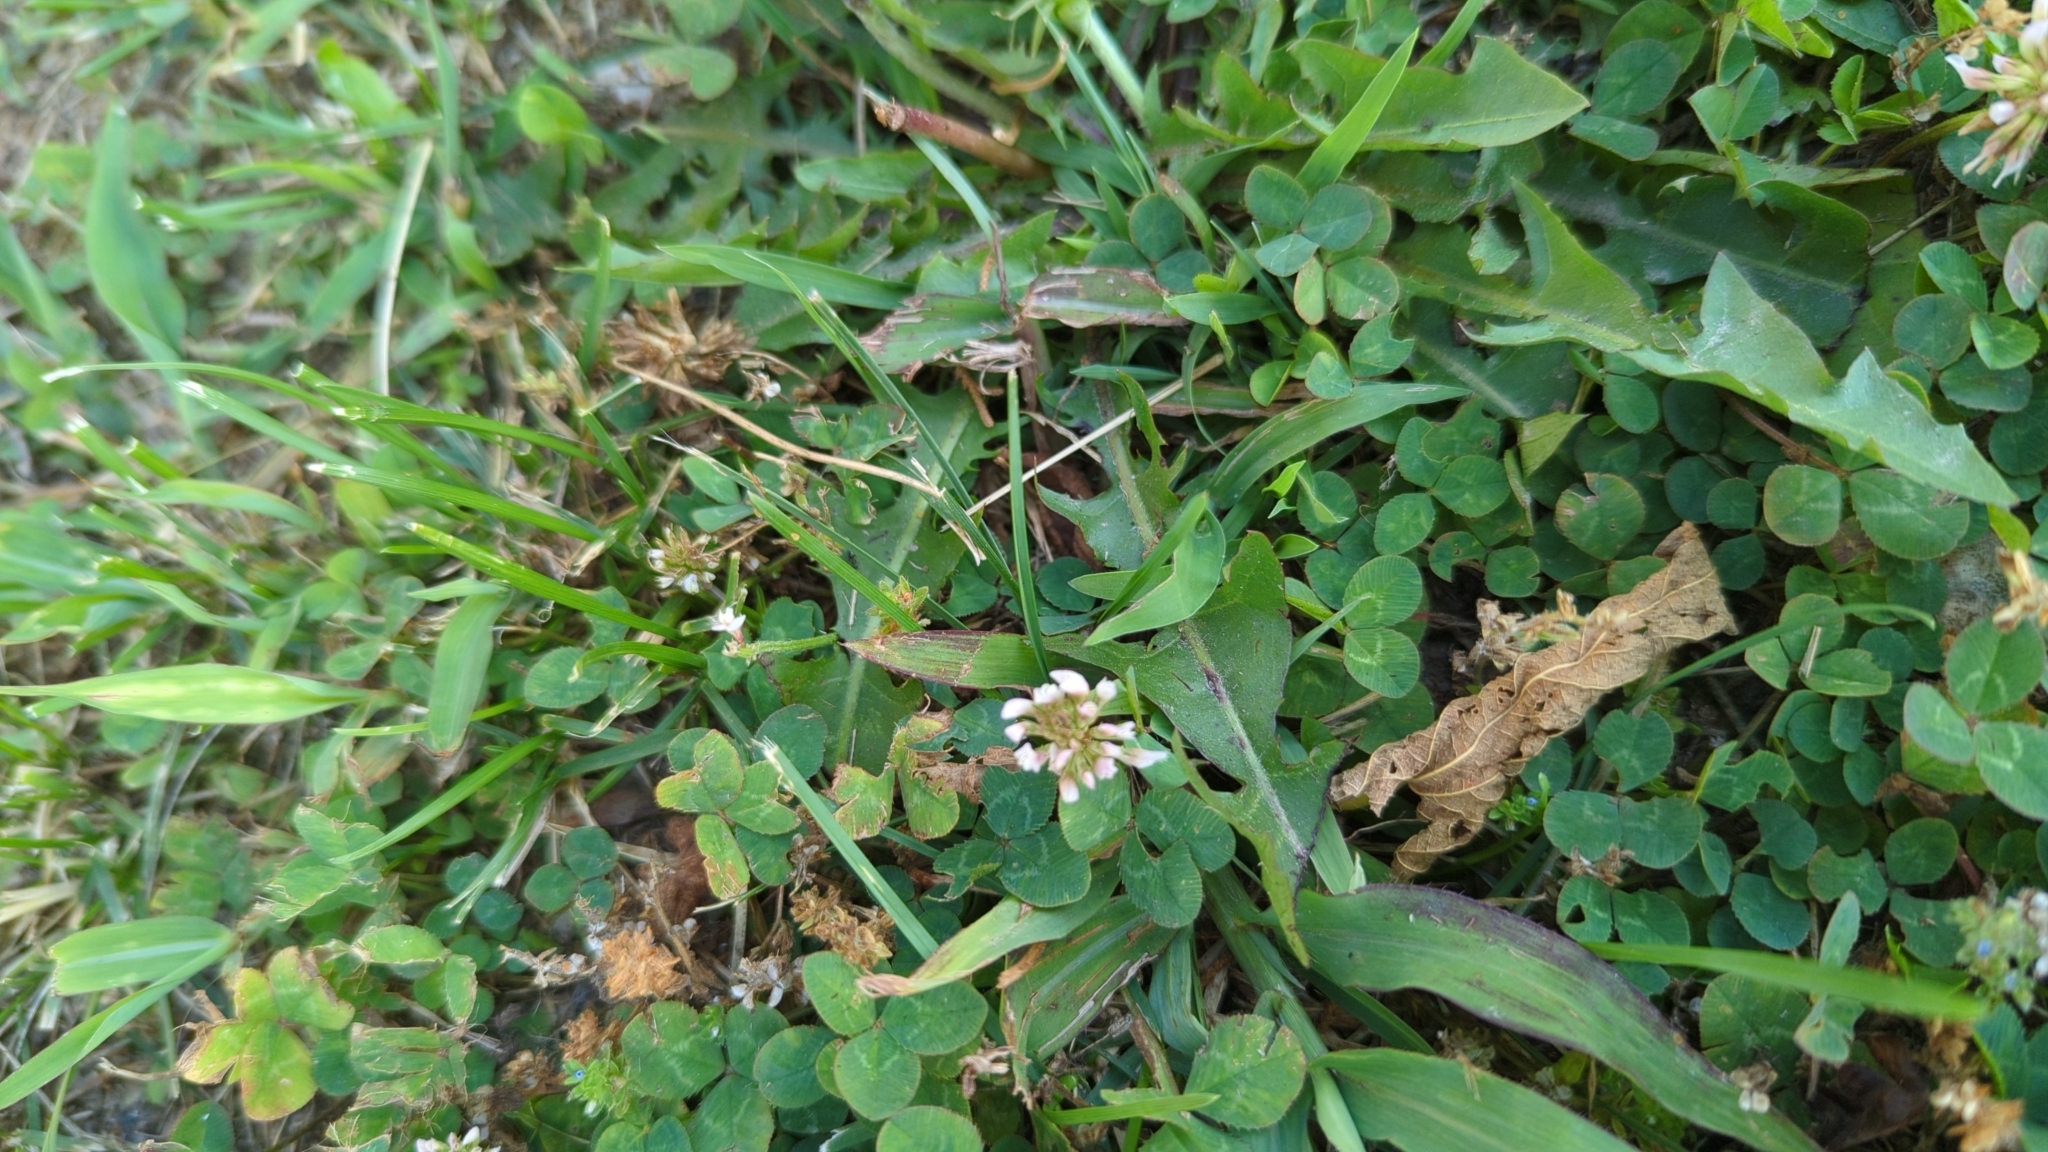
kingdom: Plantae
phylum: Tracheophyta
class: Magnoliopsida
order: Fabales
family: Fabaceae
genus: Trifolium
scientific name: Trifolium repens
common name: White clover
